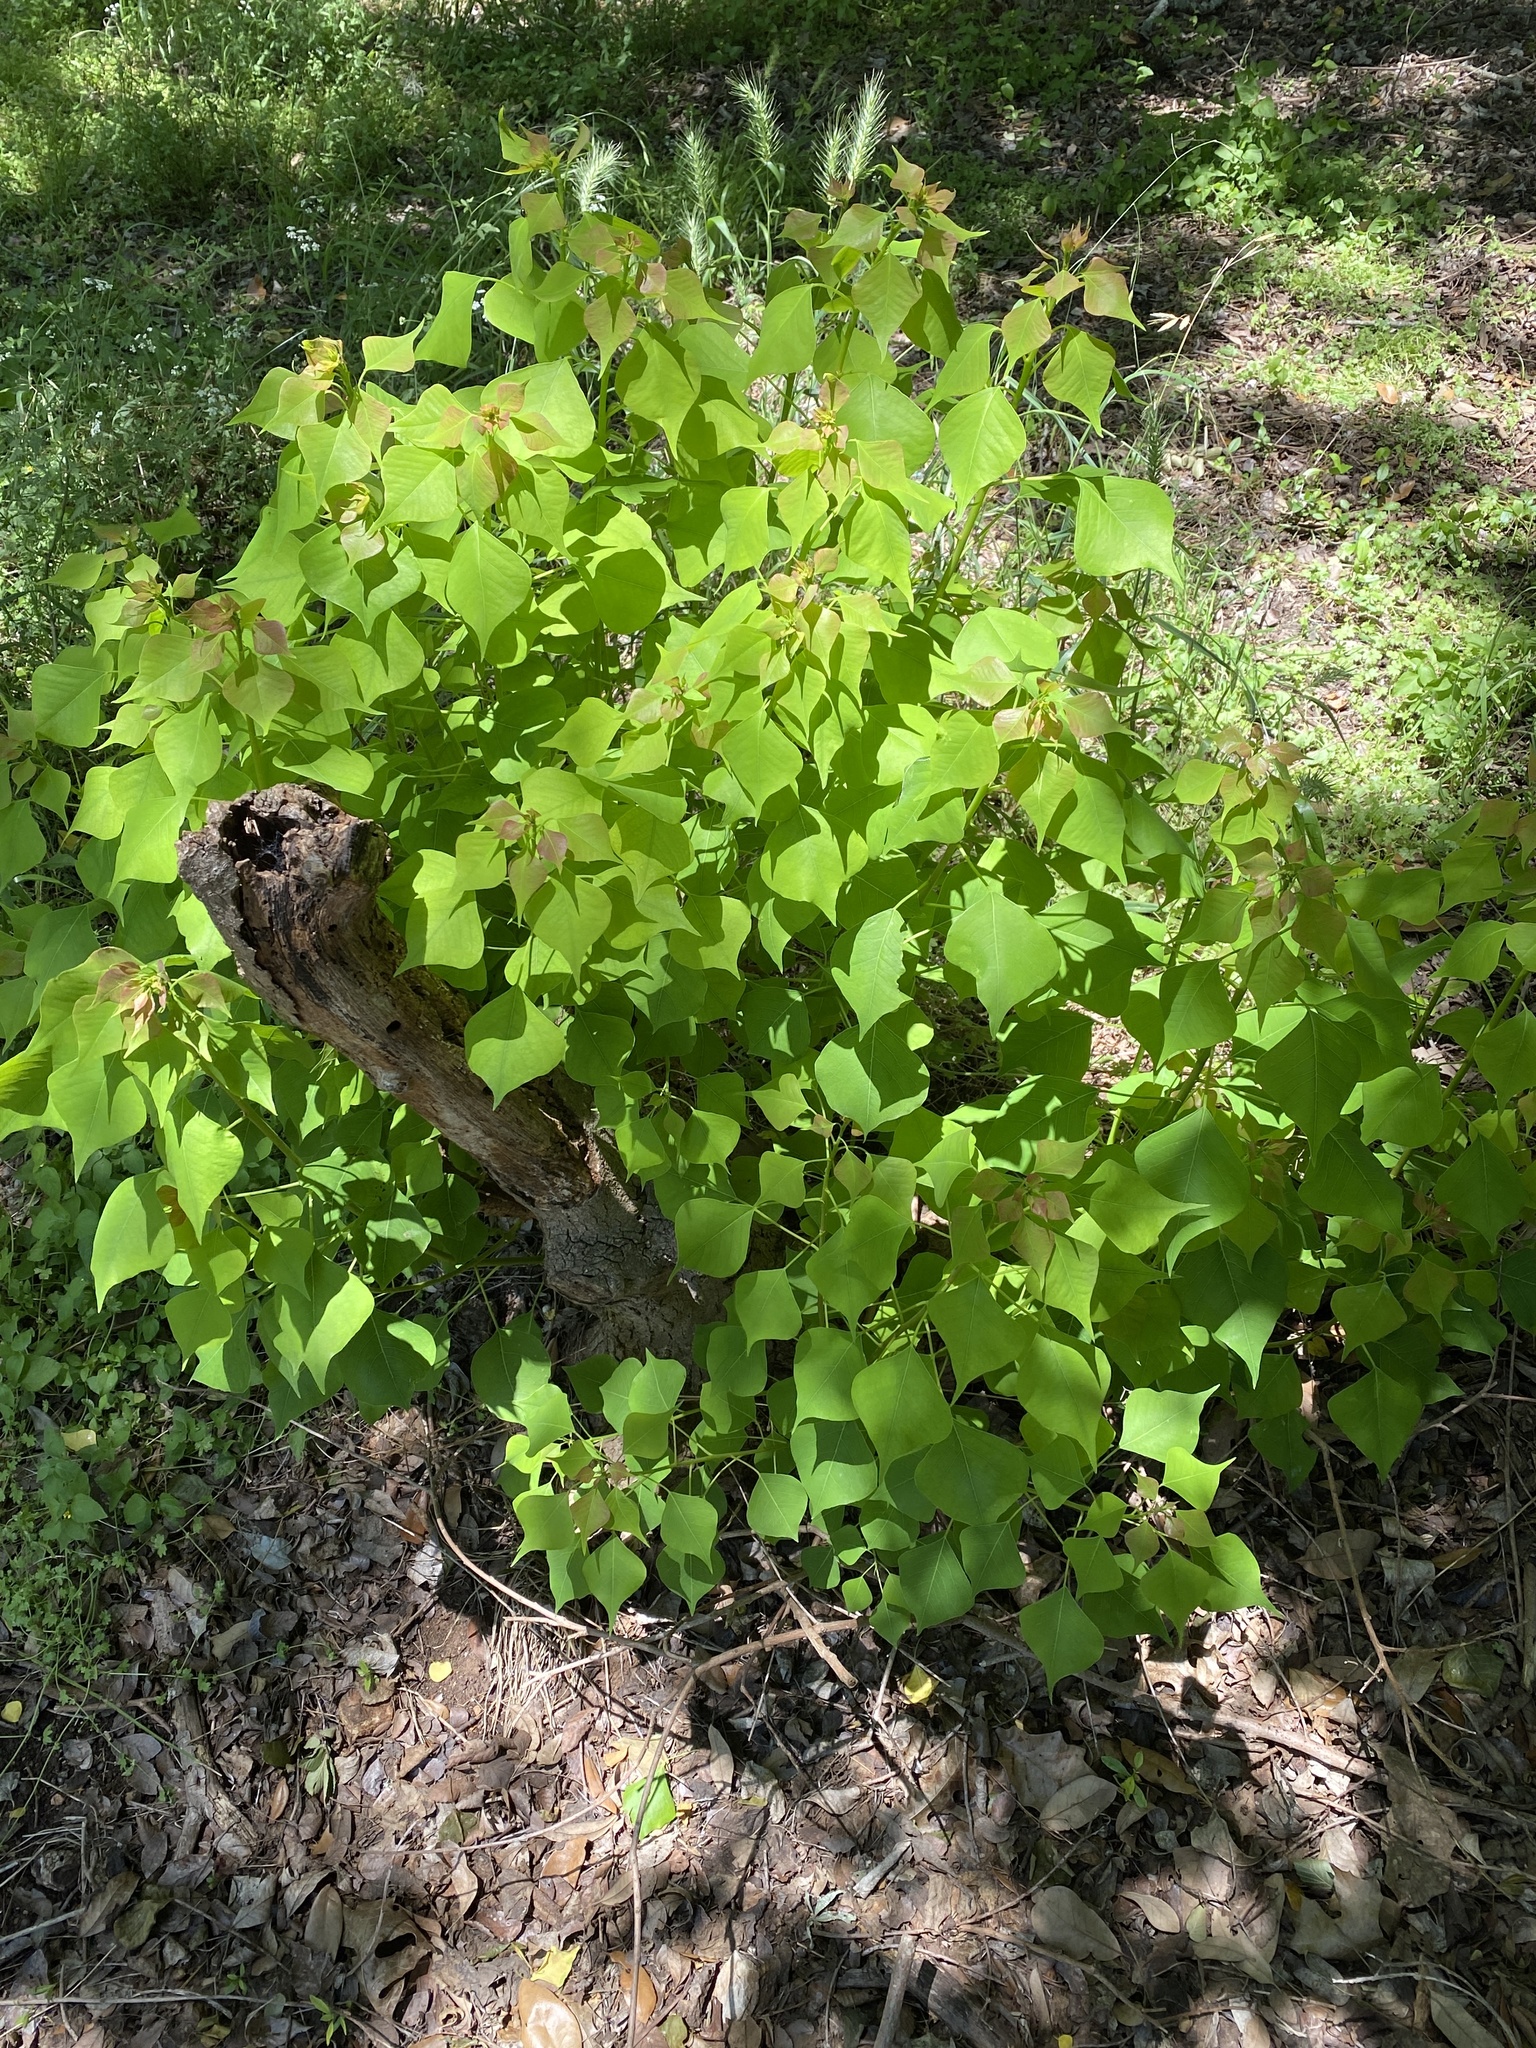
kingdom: Plantae
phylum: Tracheophyta
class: Magnoliopsida
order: Malpighiales
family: Euphorbiaceae
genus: Triadica
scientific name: Triadica sebifera
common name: Chinese tallow
